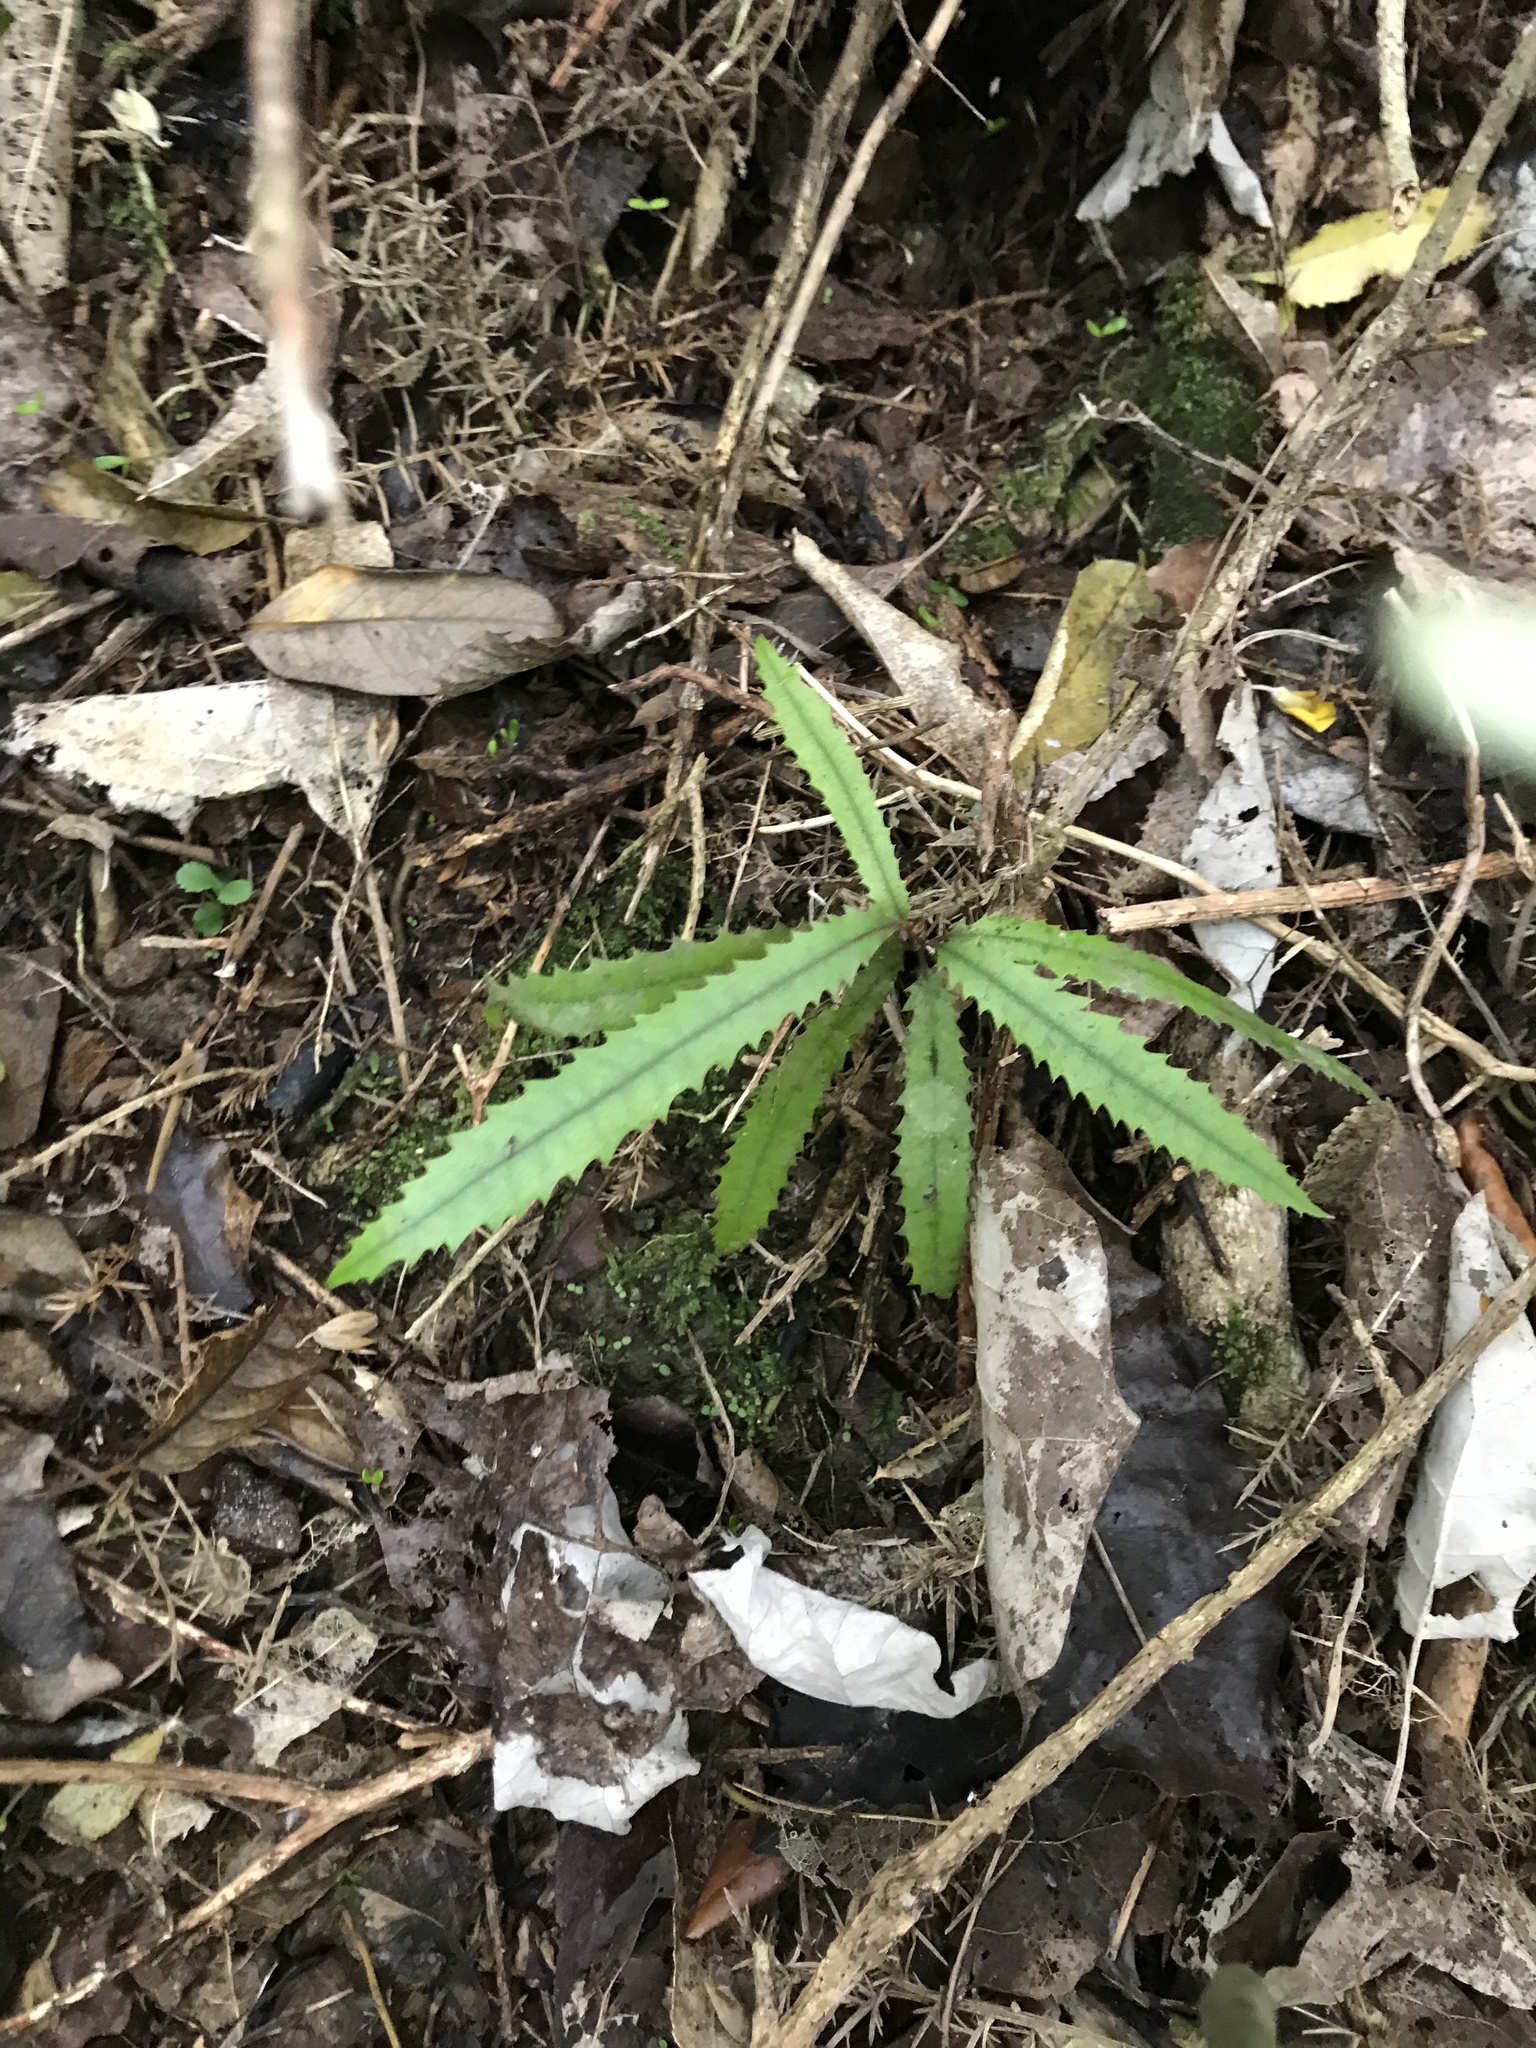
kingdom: Plantae
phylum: Tracheophyta
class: Magnoliopsida
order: Proteales
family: Proteaceae
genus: Knightia
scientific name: Knightia excelsa
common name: New zealand-honeysuckle
